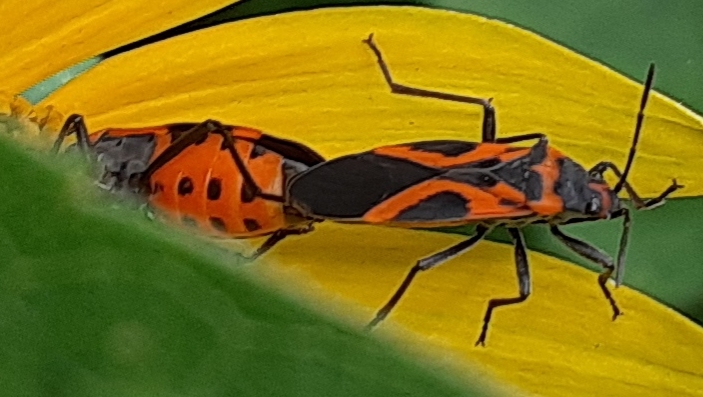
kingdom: Animalia
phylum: Arthropoda
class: Insecta
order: Hemiptera
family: Lygaeidae
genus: Lygaeus
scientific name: Lygaeus turcicus
